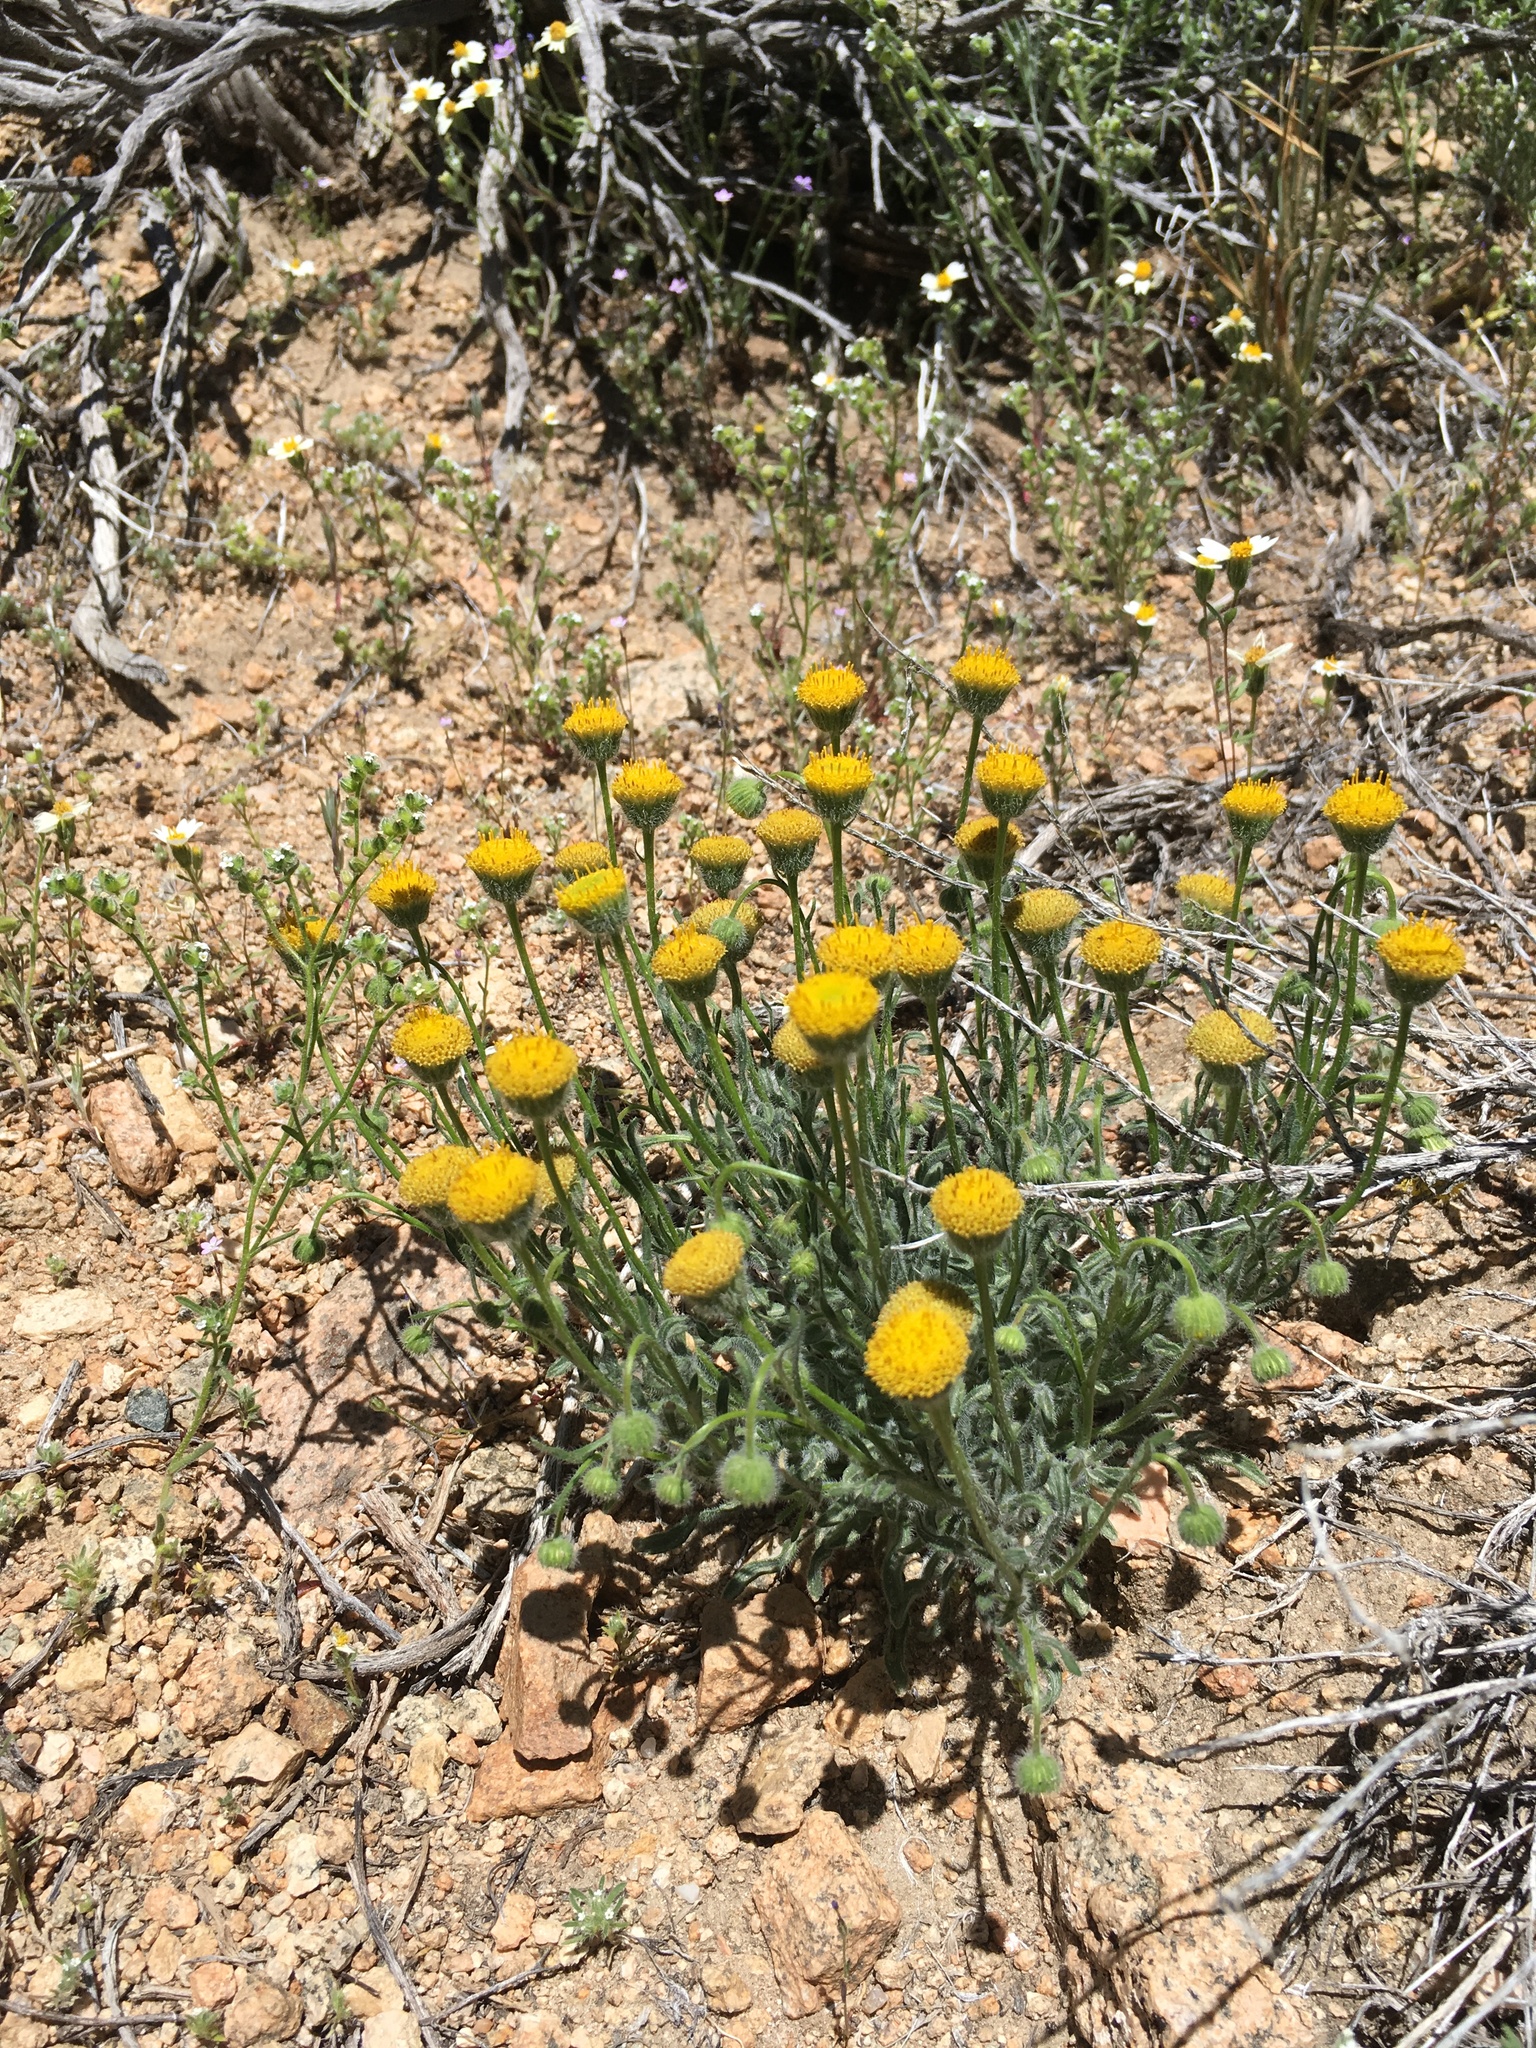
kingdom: Plantae
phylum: Tracheophyta
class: Magnoliopsida
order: Asterales
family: Asteraceae
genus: Erigeron
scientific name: Erigeron aphanactis
